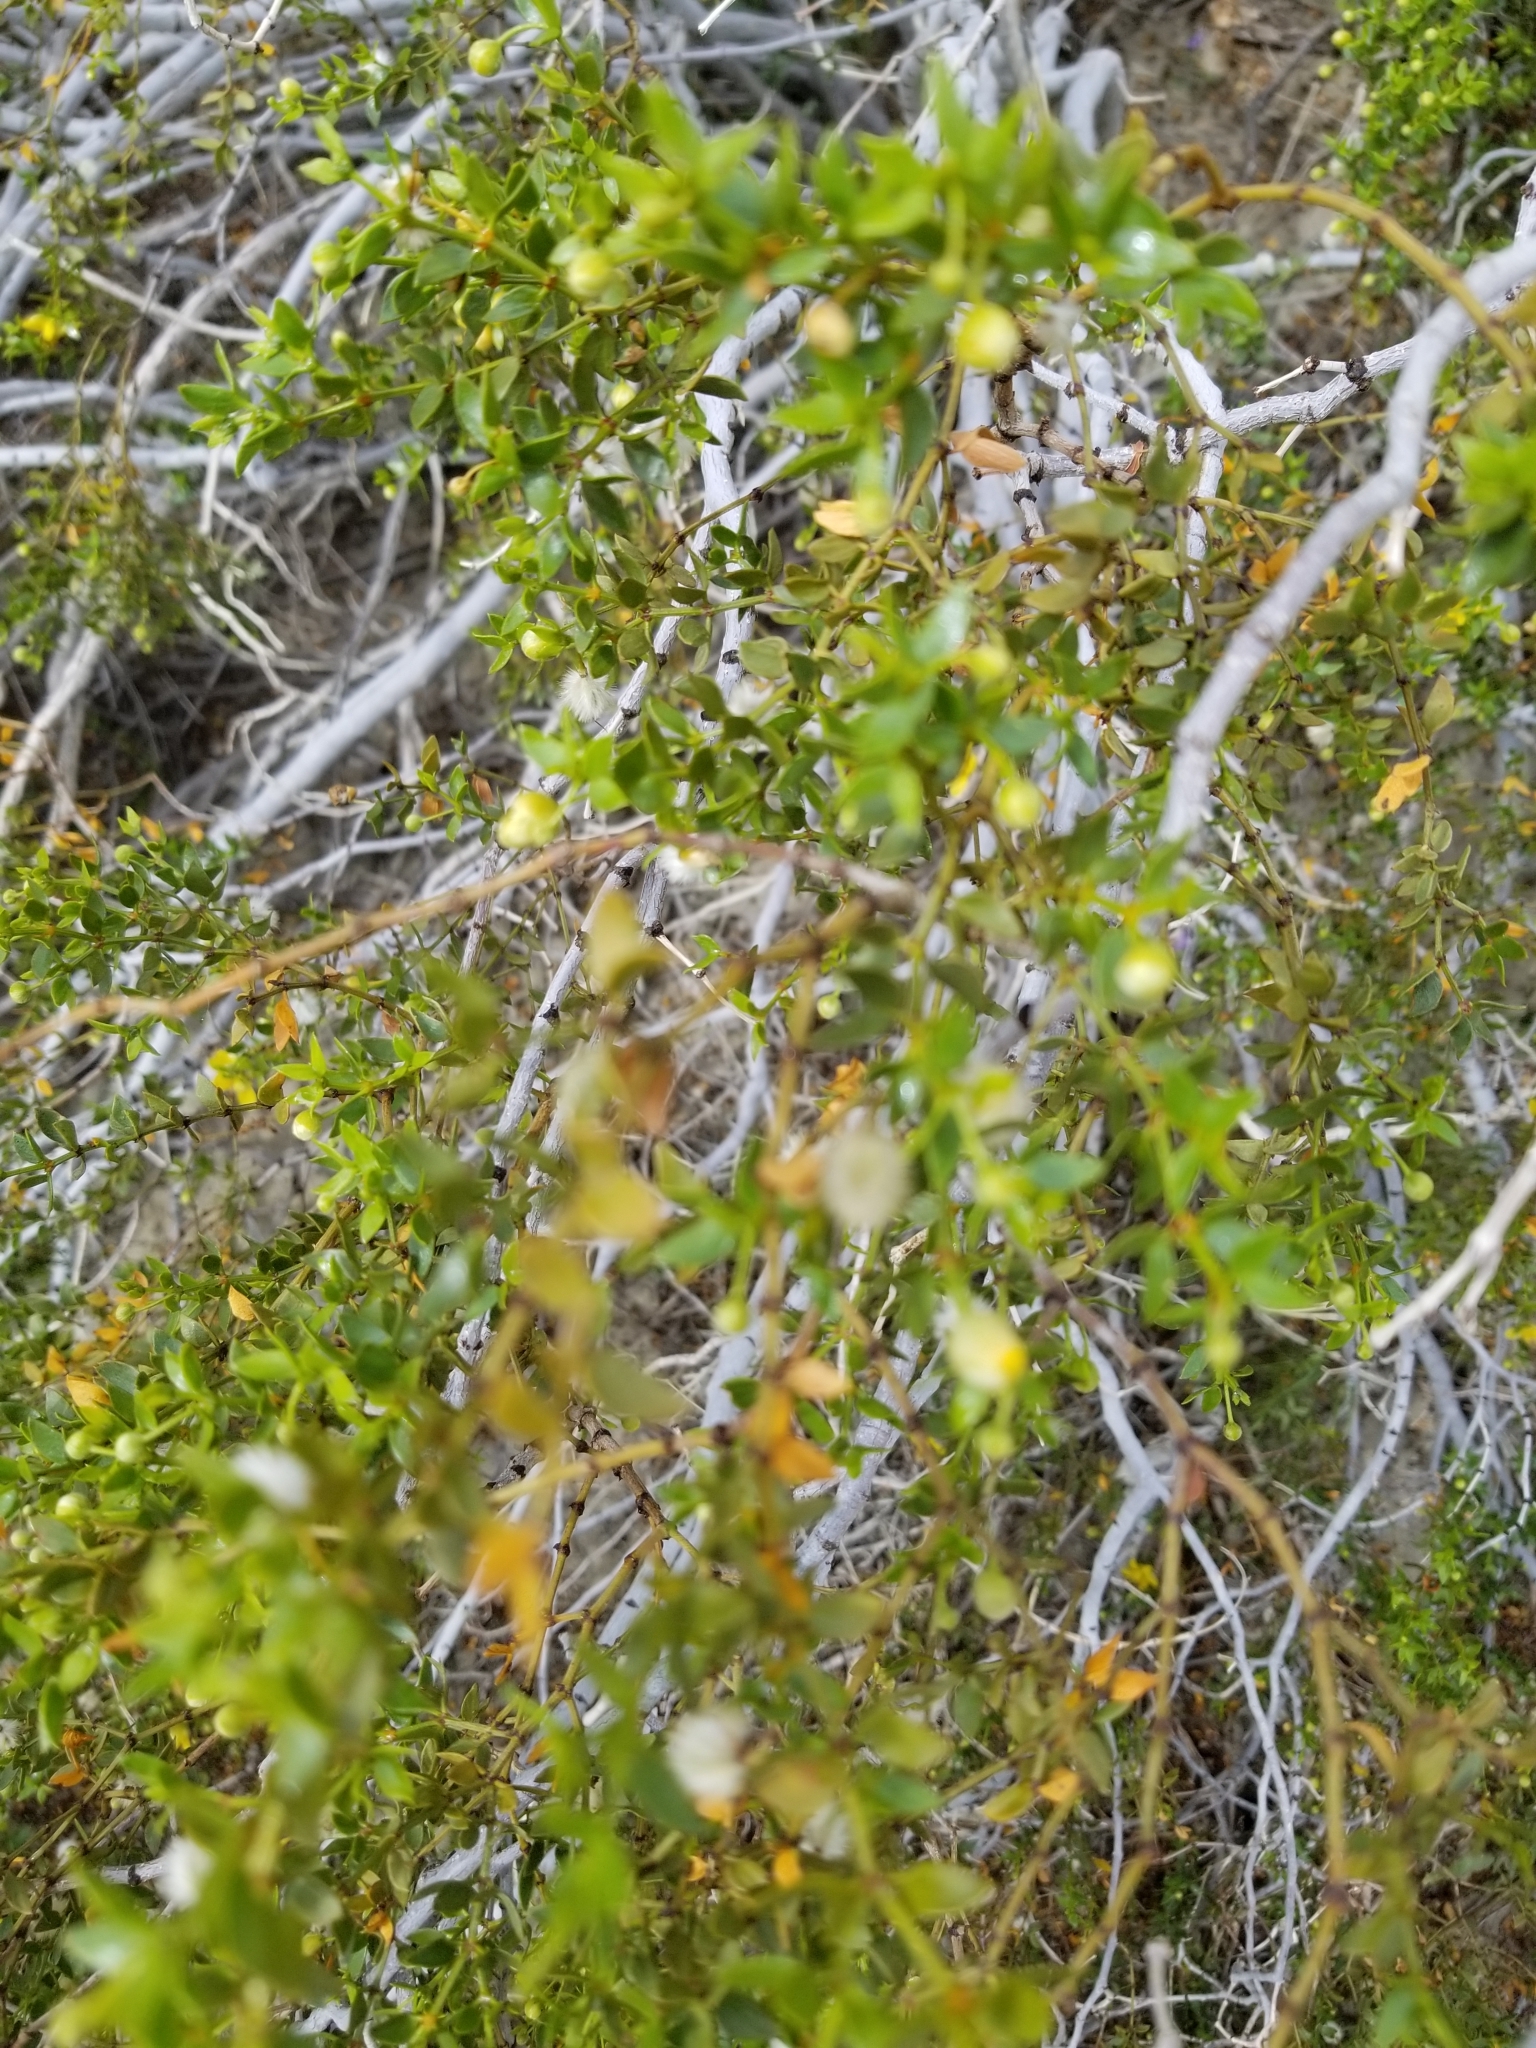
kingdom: Animalia
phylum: Arthropoda
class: Insecta
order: Diptera
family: Cecidomyiidae
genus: Asphondylia
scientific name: Asphondylia auripila
